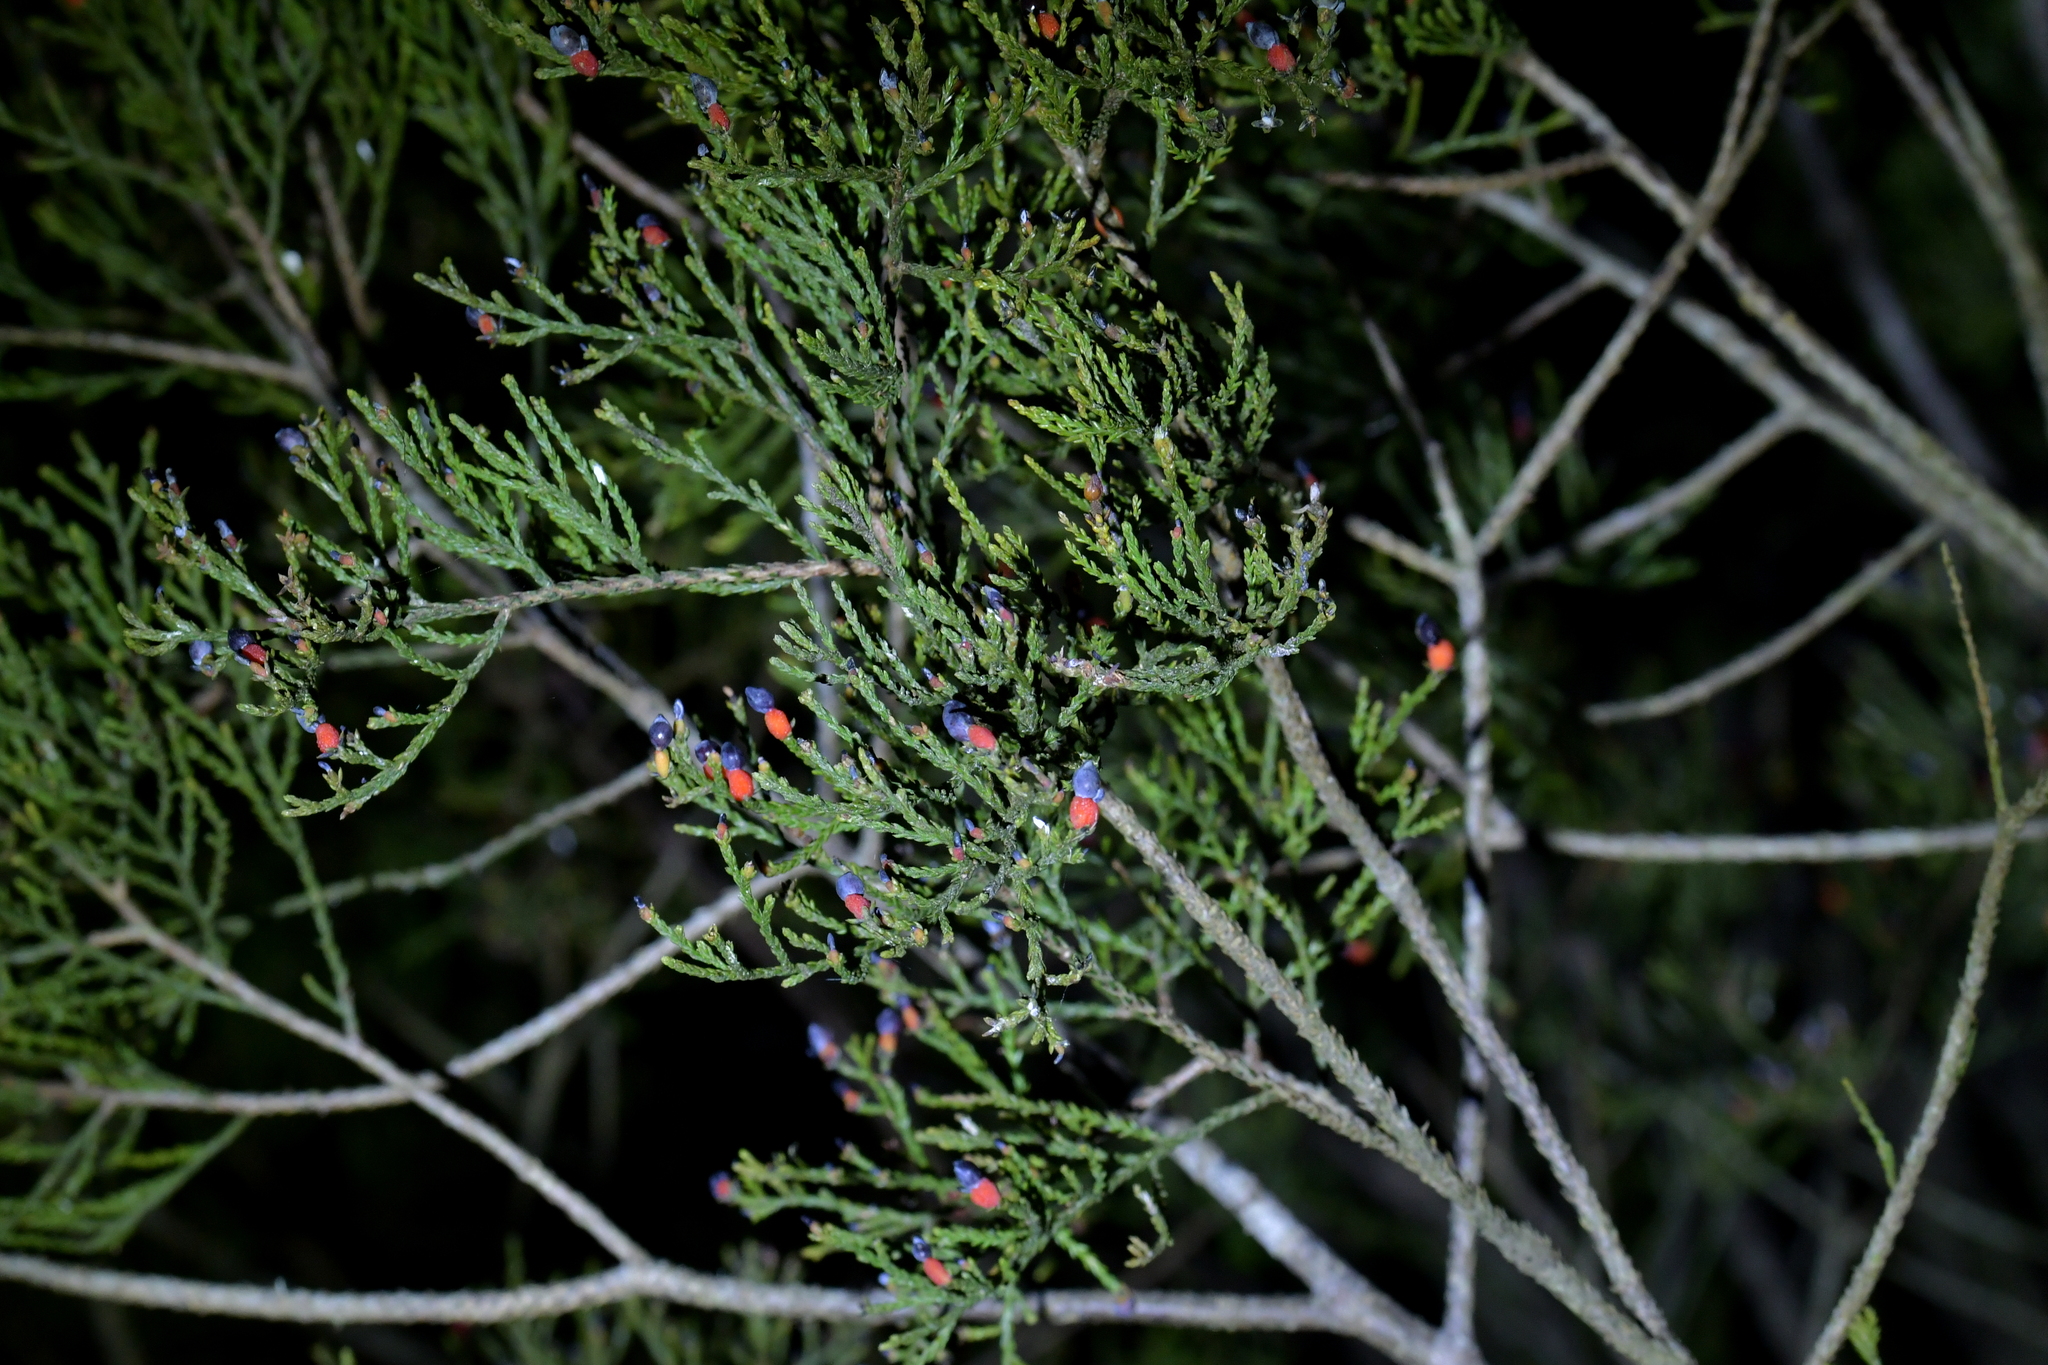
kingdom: Plantae
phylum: Tracheophyta
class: Pinopsida
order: Pinales
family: Podocarpaceae
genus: Dacrycarpus
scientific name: Dacrycarpus dacrydioides
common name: White pine
